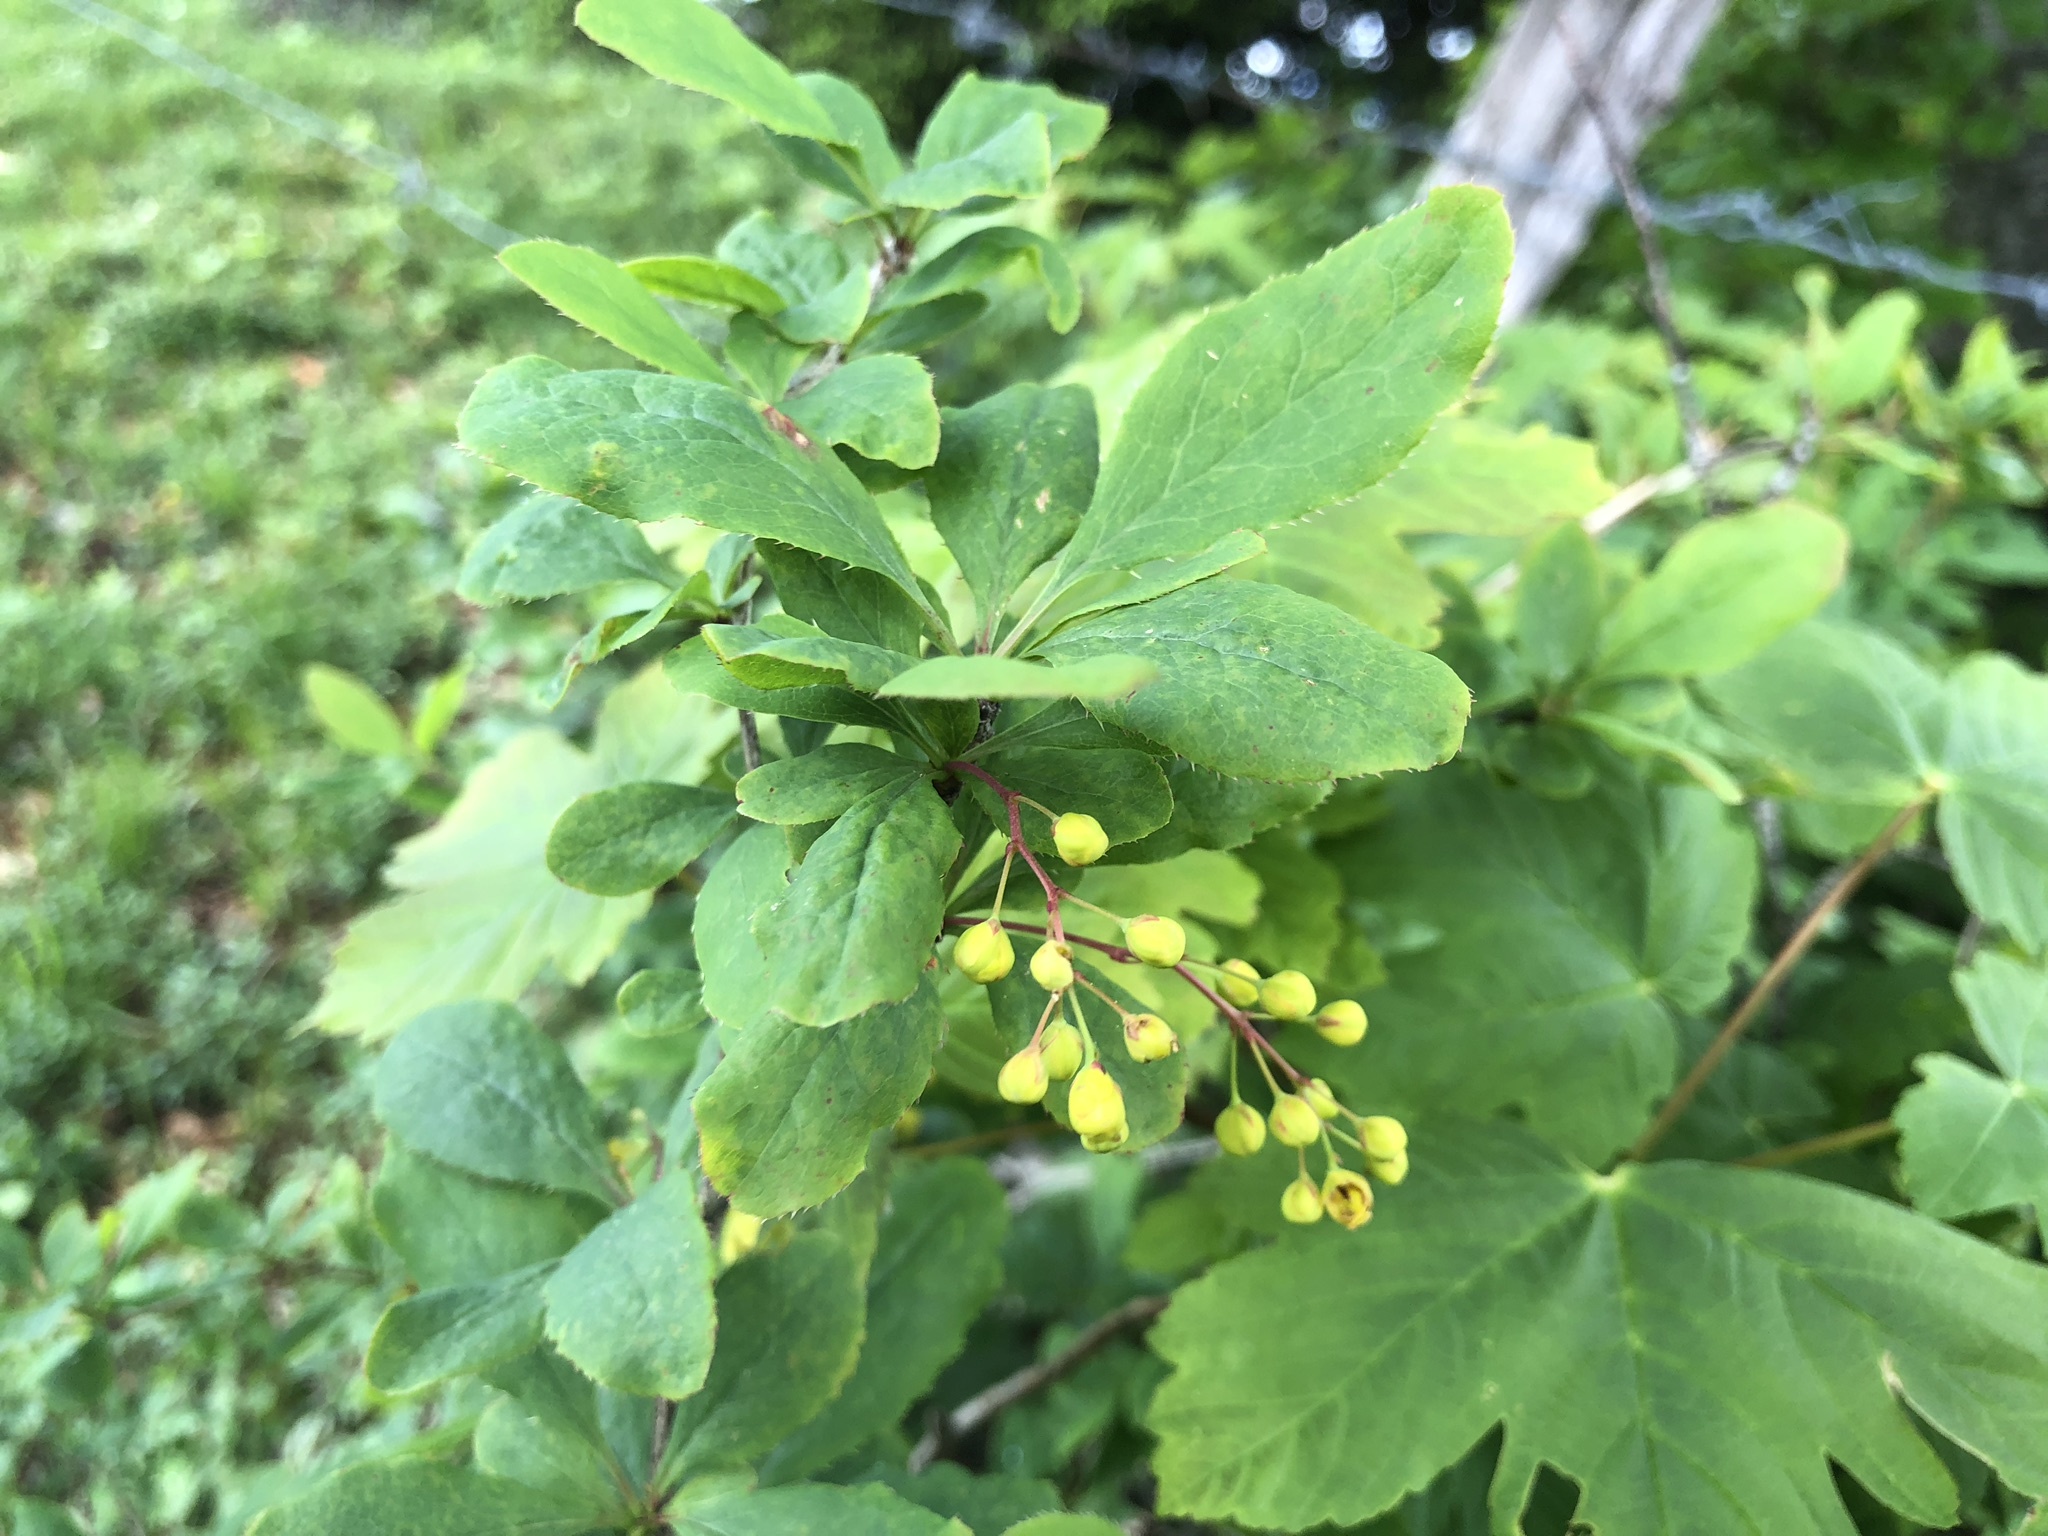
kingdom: Plantae
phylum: Tracheophyta
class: Magnoliopsida
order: Ranunculales
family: Berberidaceae
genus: Berberis
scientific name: Berberis vulgaris
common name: Barberry
